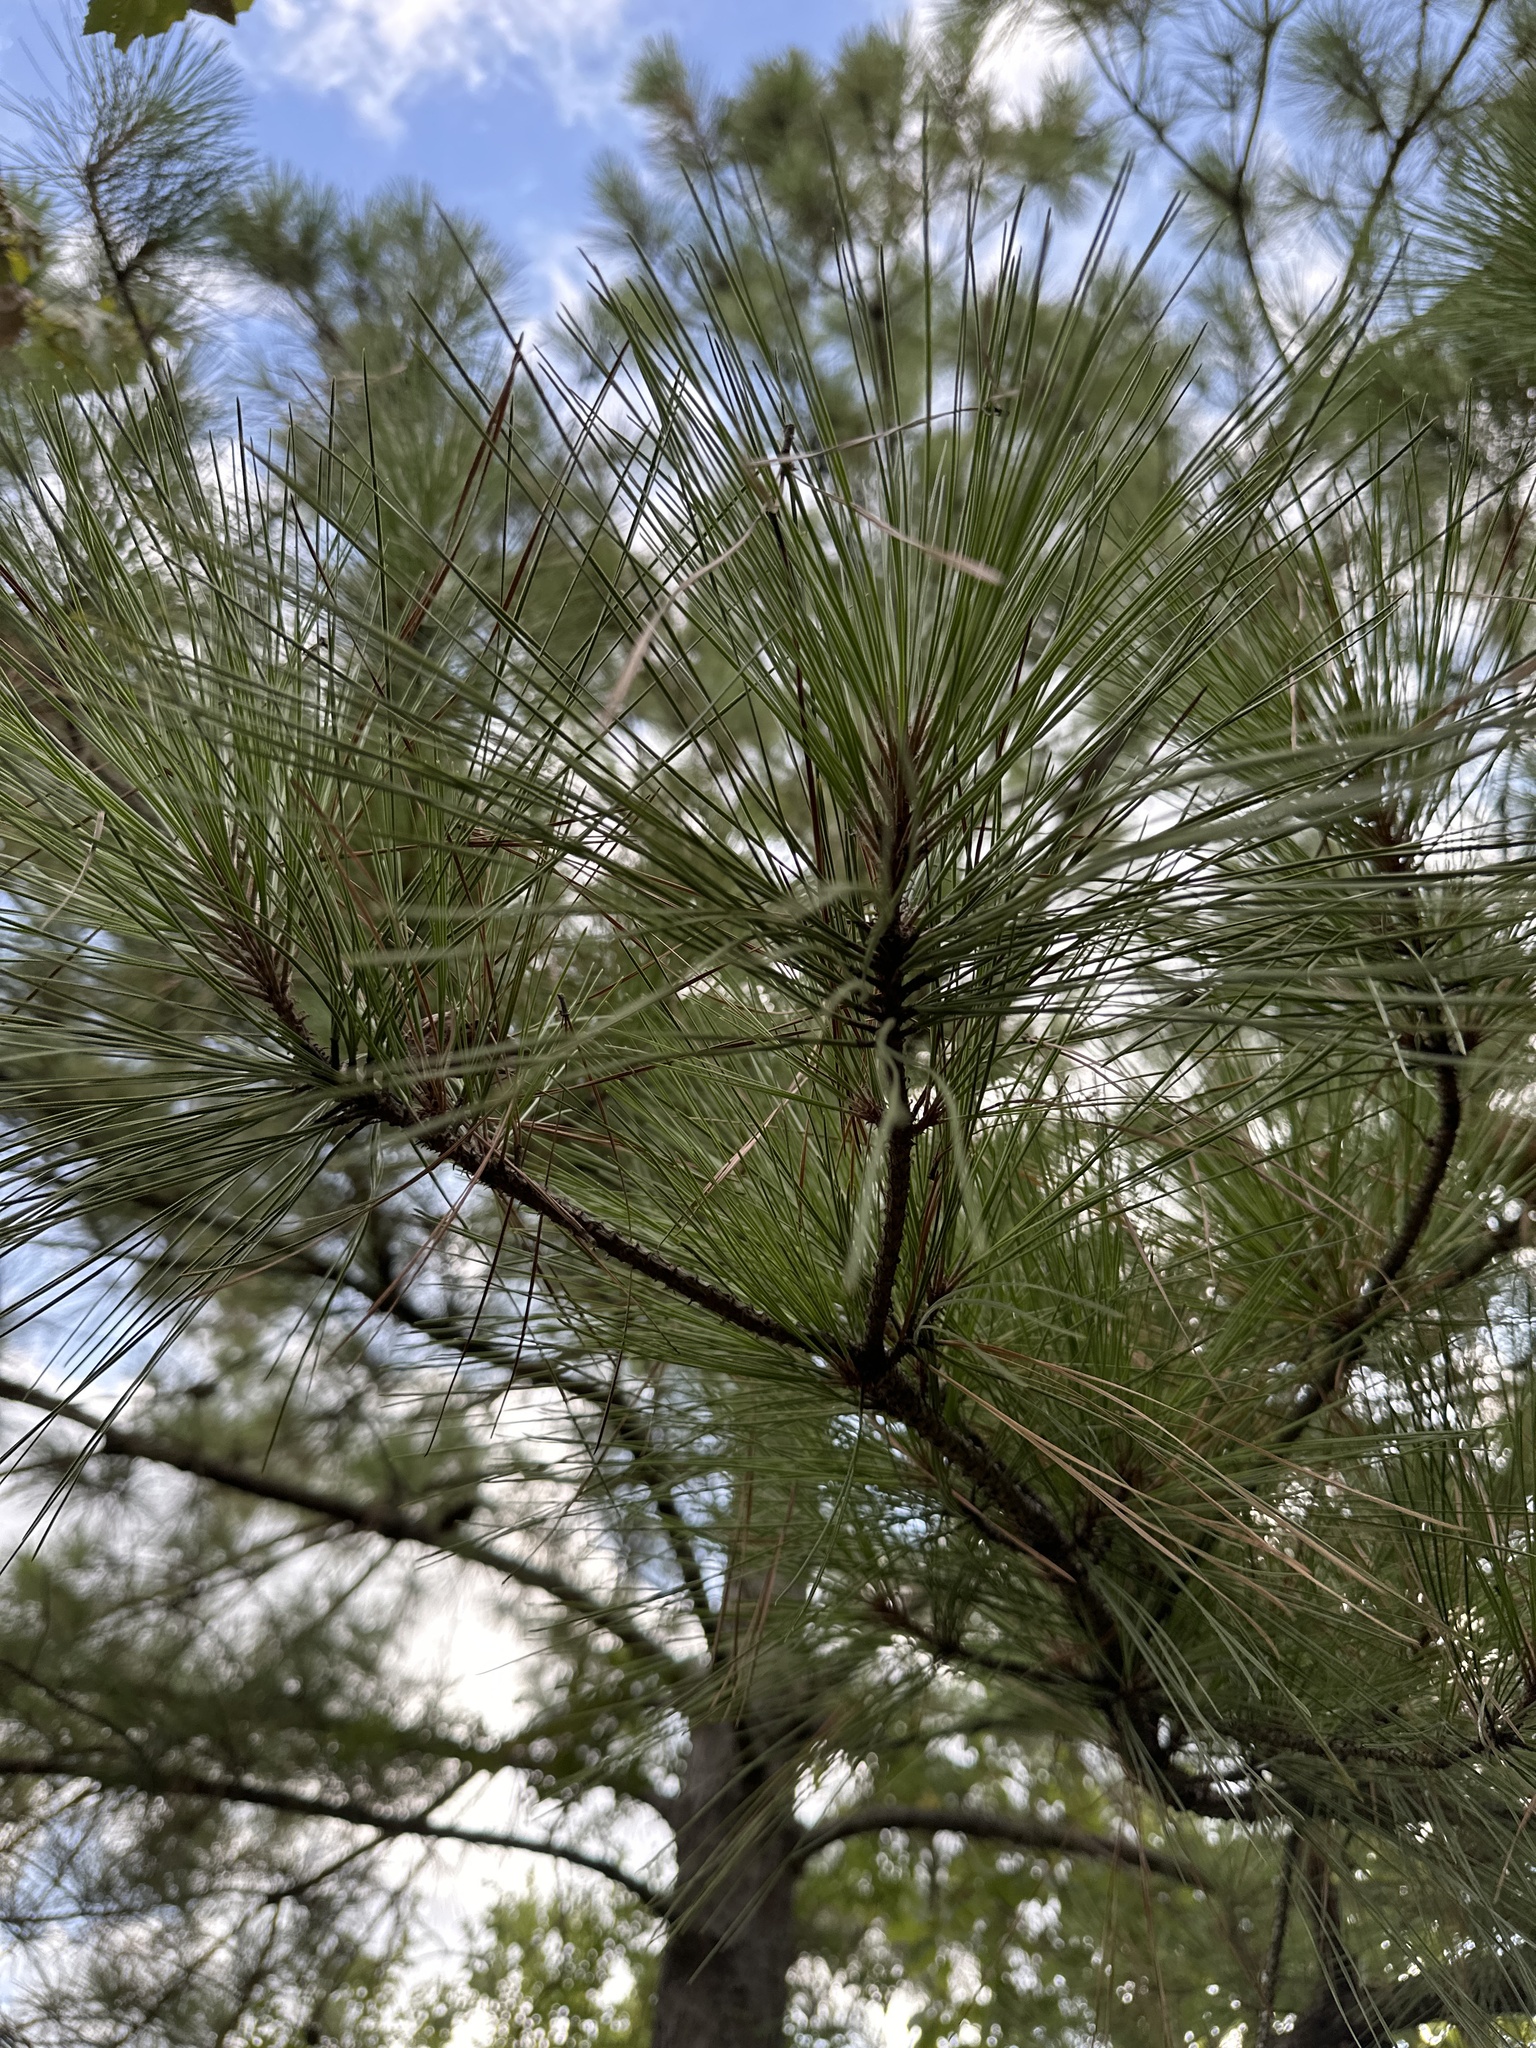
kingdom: Plantae
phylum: Tracheophyta
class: Pinopsida
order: Pinales
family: Pinaceae
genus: Pinus
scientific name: Pinus taeda
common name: Loblolly pine
